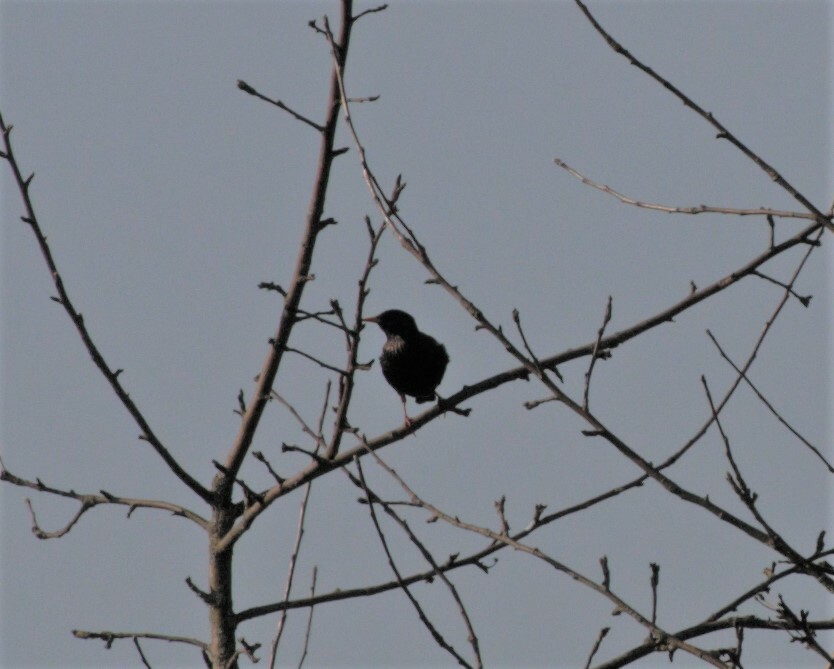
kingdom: Animalia
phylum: Chordata
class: Aves
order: Passeriformes
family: Sturnidae
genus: Sturnus
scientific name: Sturnus vulgaris
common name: Common starling
